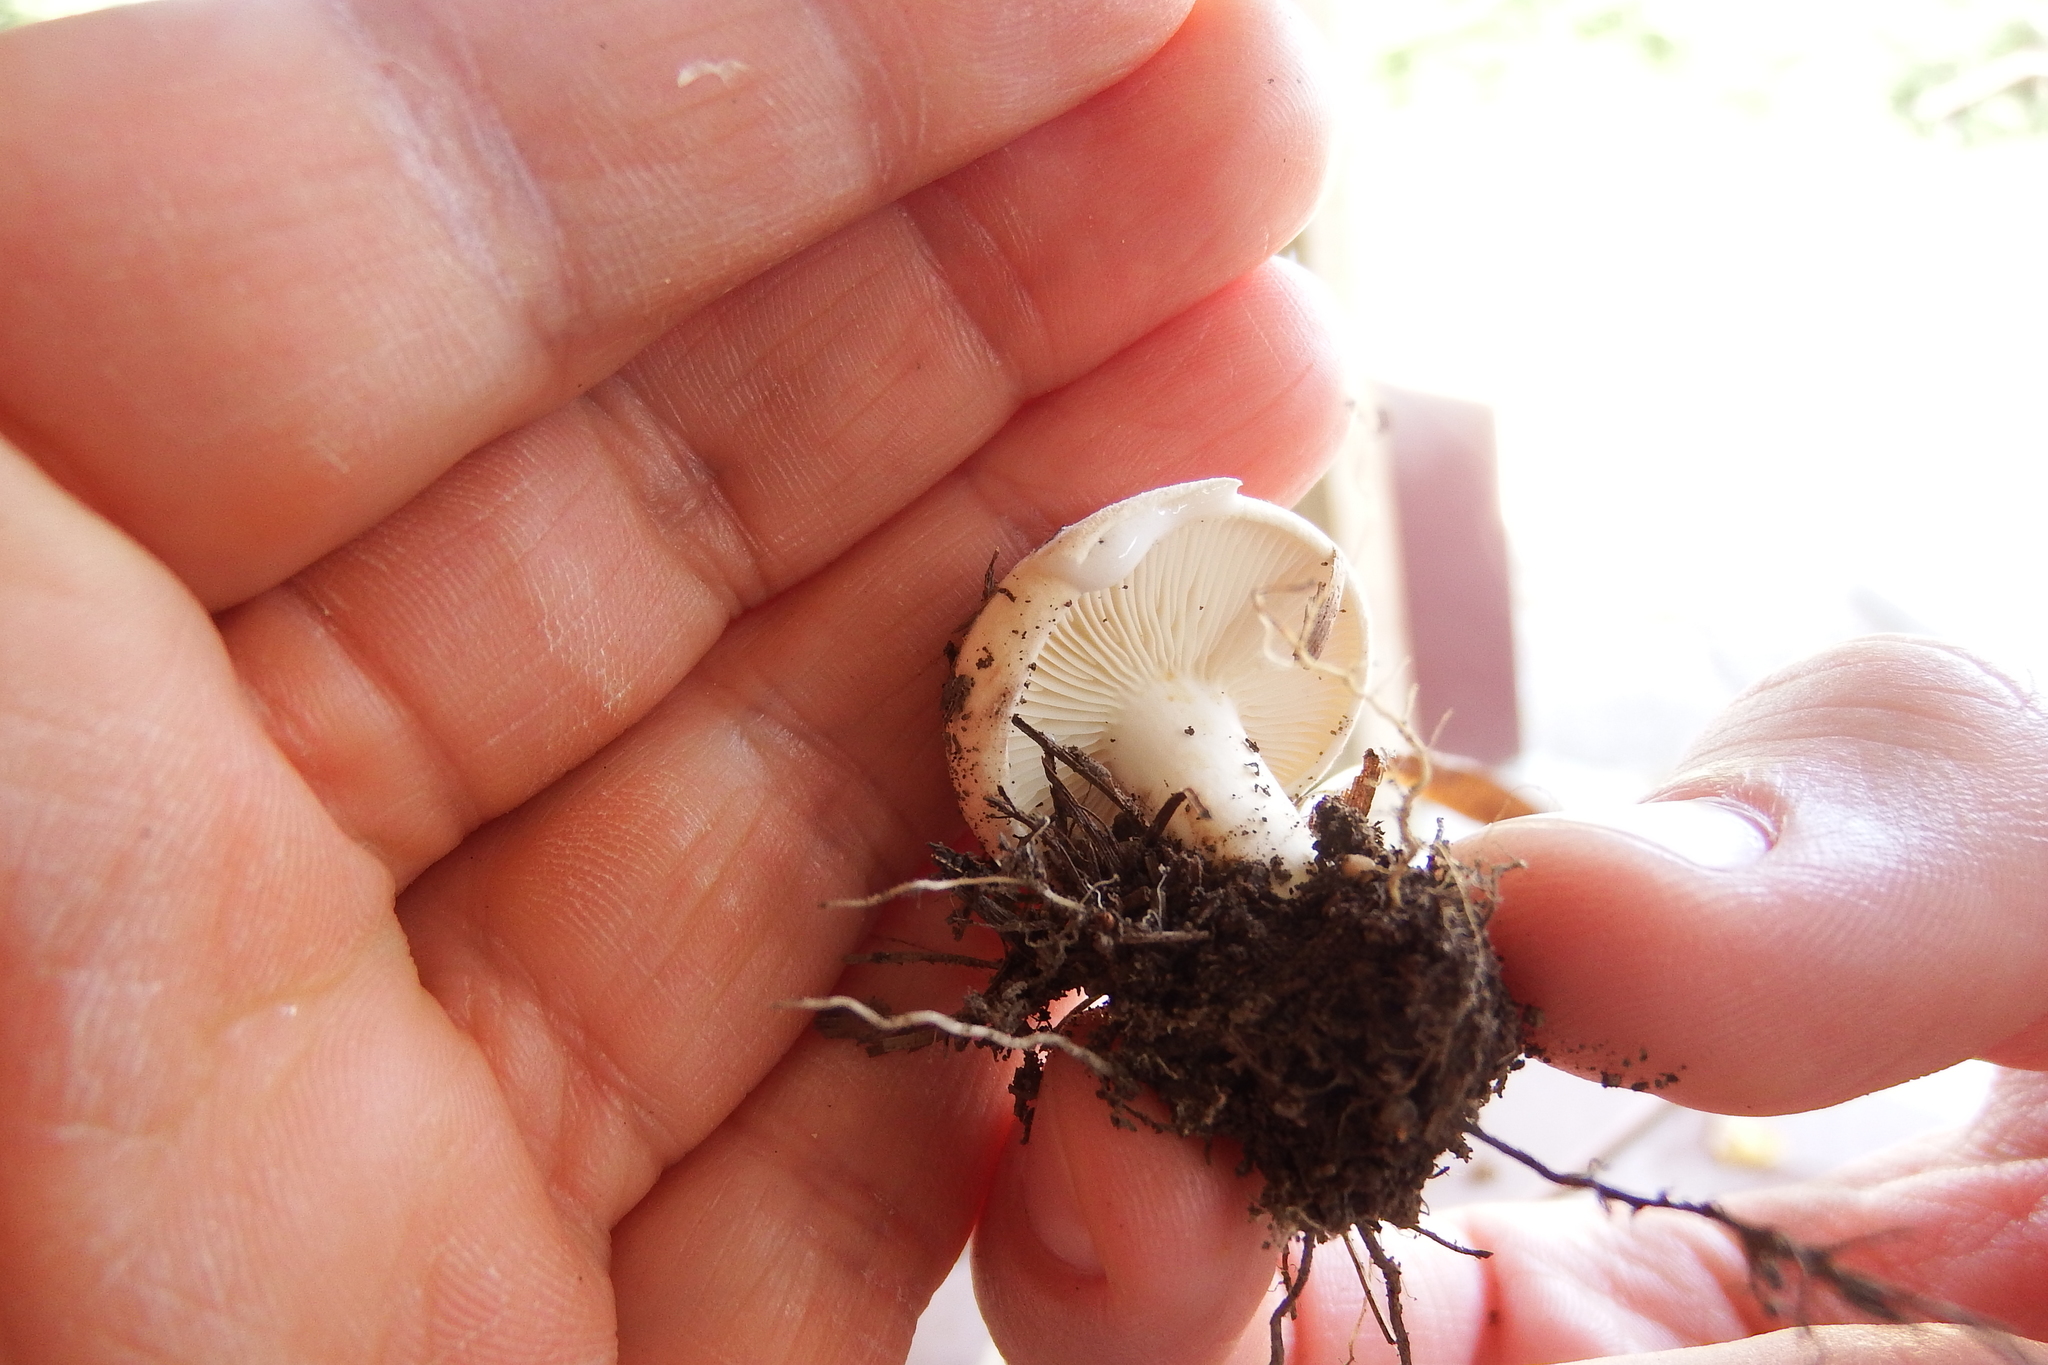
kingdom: Fungi
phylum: Basidiomycota
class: Agaricomycetes
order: Russulales
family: Russulaceae
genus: Lactifluus
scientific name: Lactifluus subvellereus
